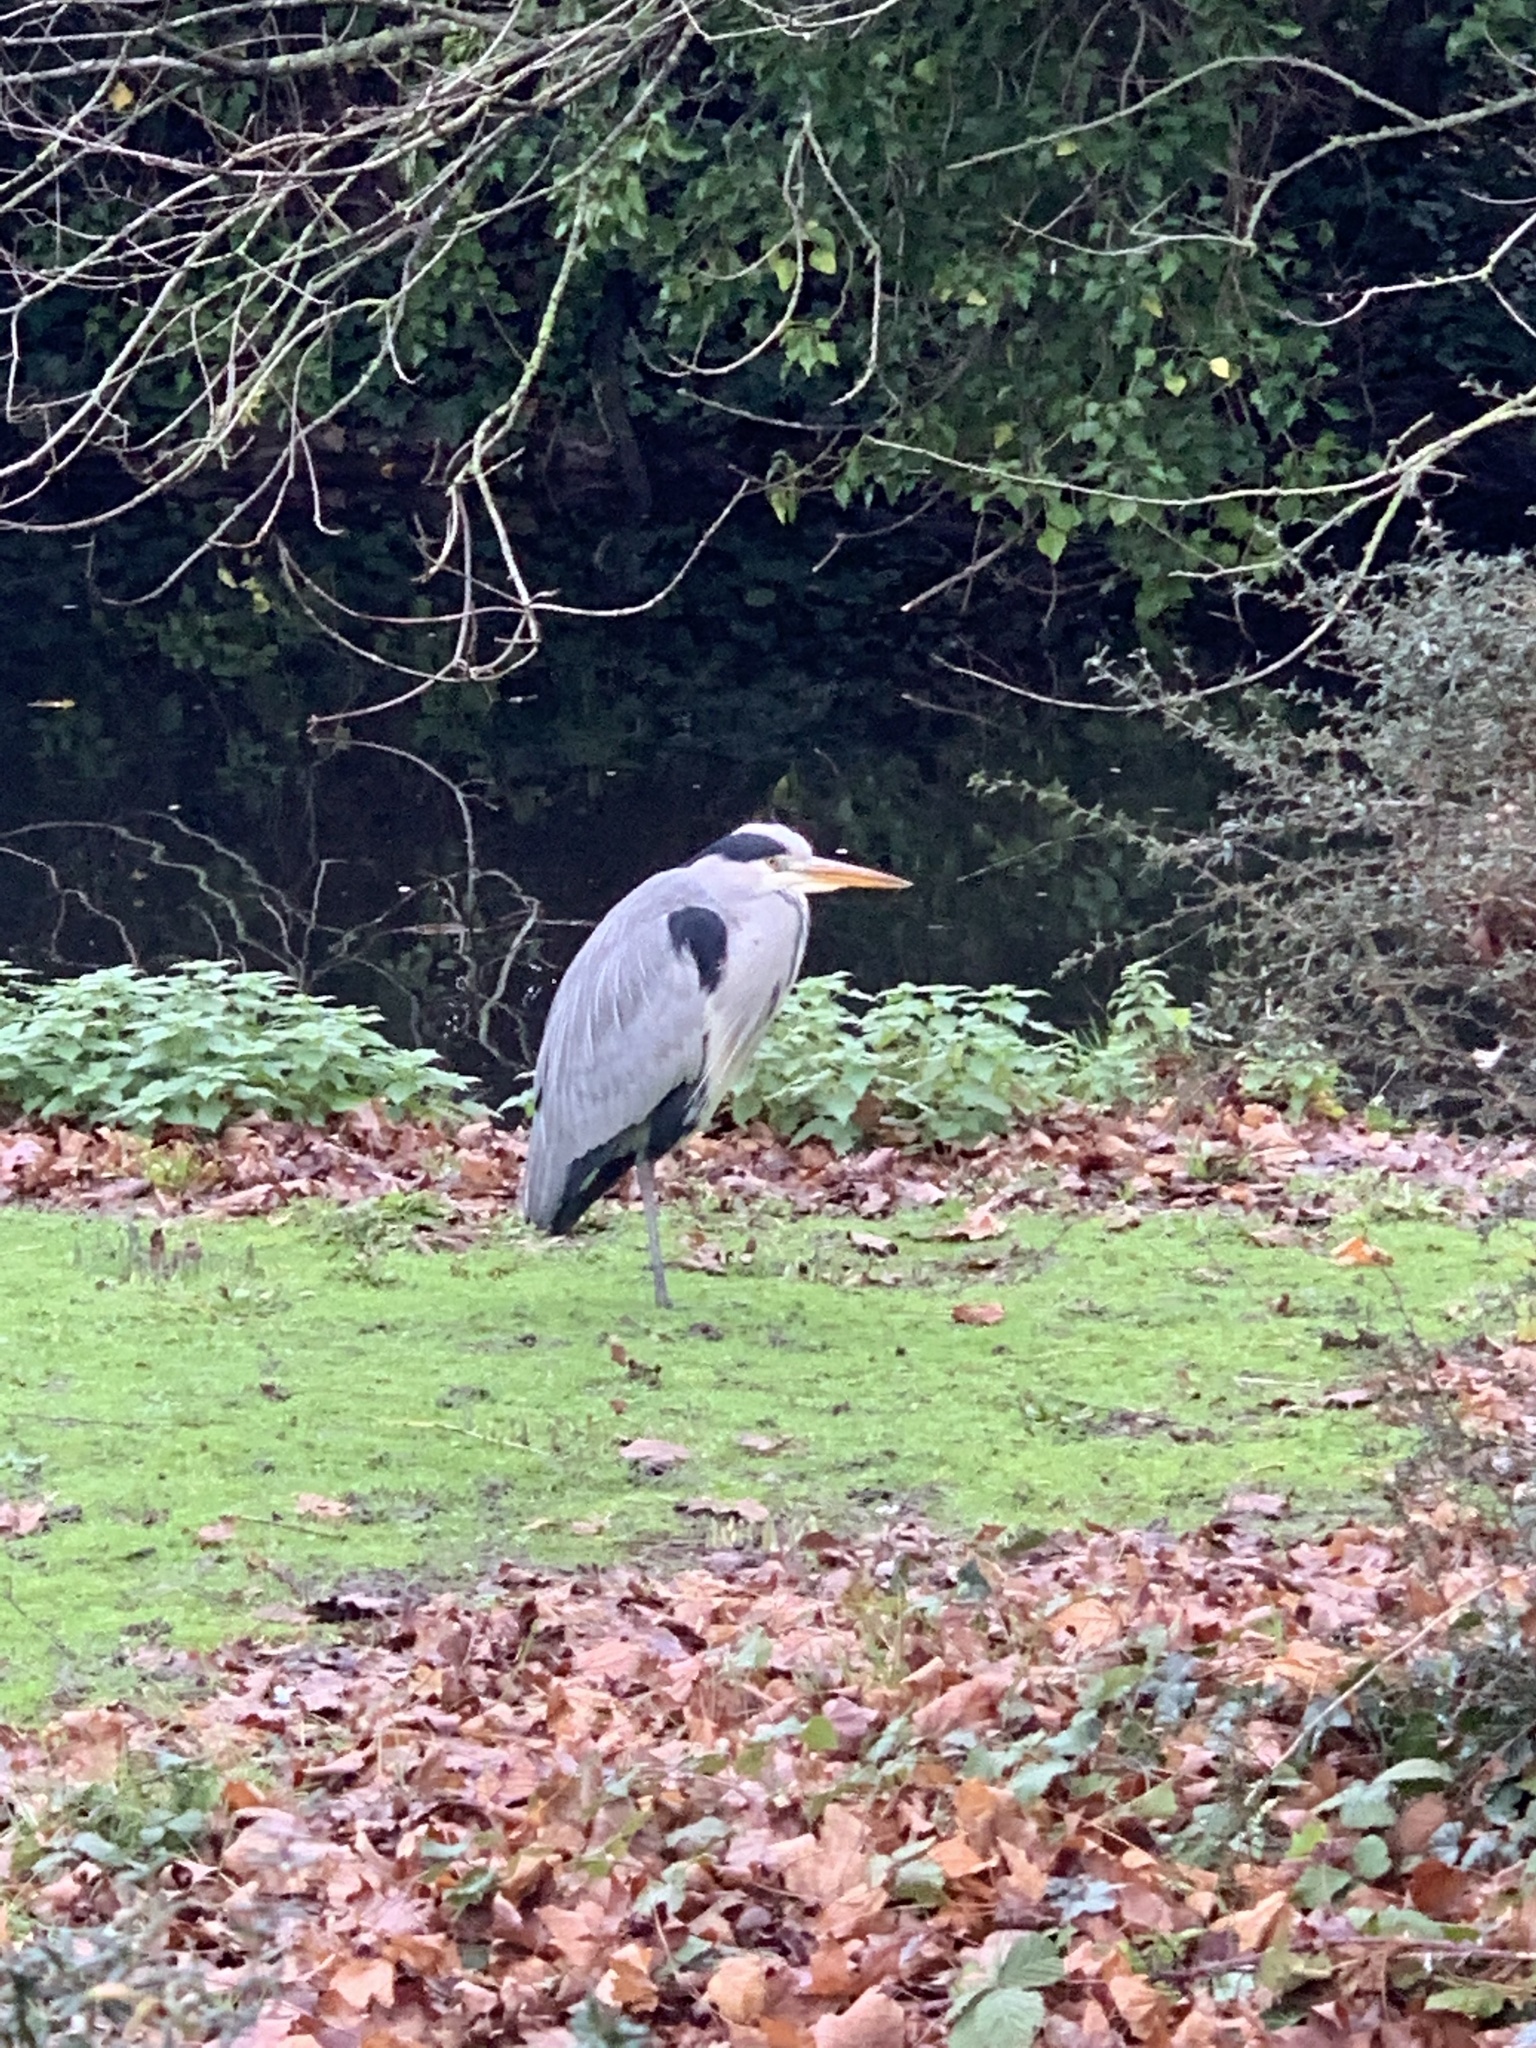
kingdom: Animalia
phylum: Chordata
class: Aves
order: Pelecaniformes
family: Ardeidae
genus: Ardea
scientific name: Ardea cinerea
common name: Grey heron
